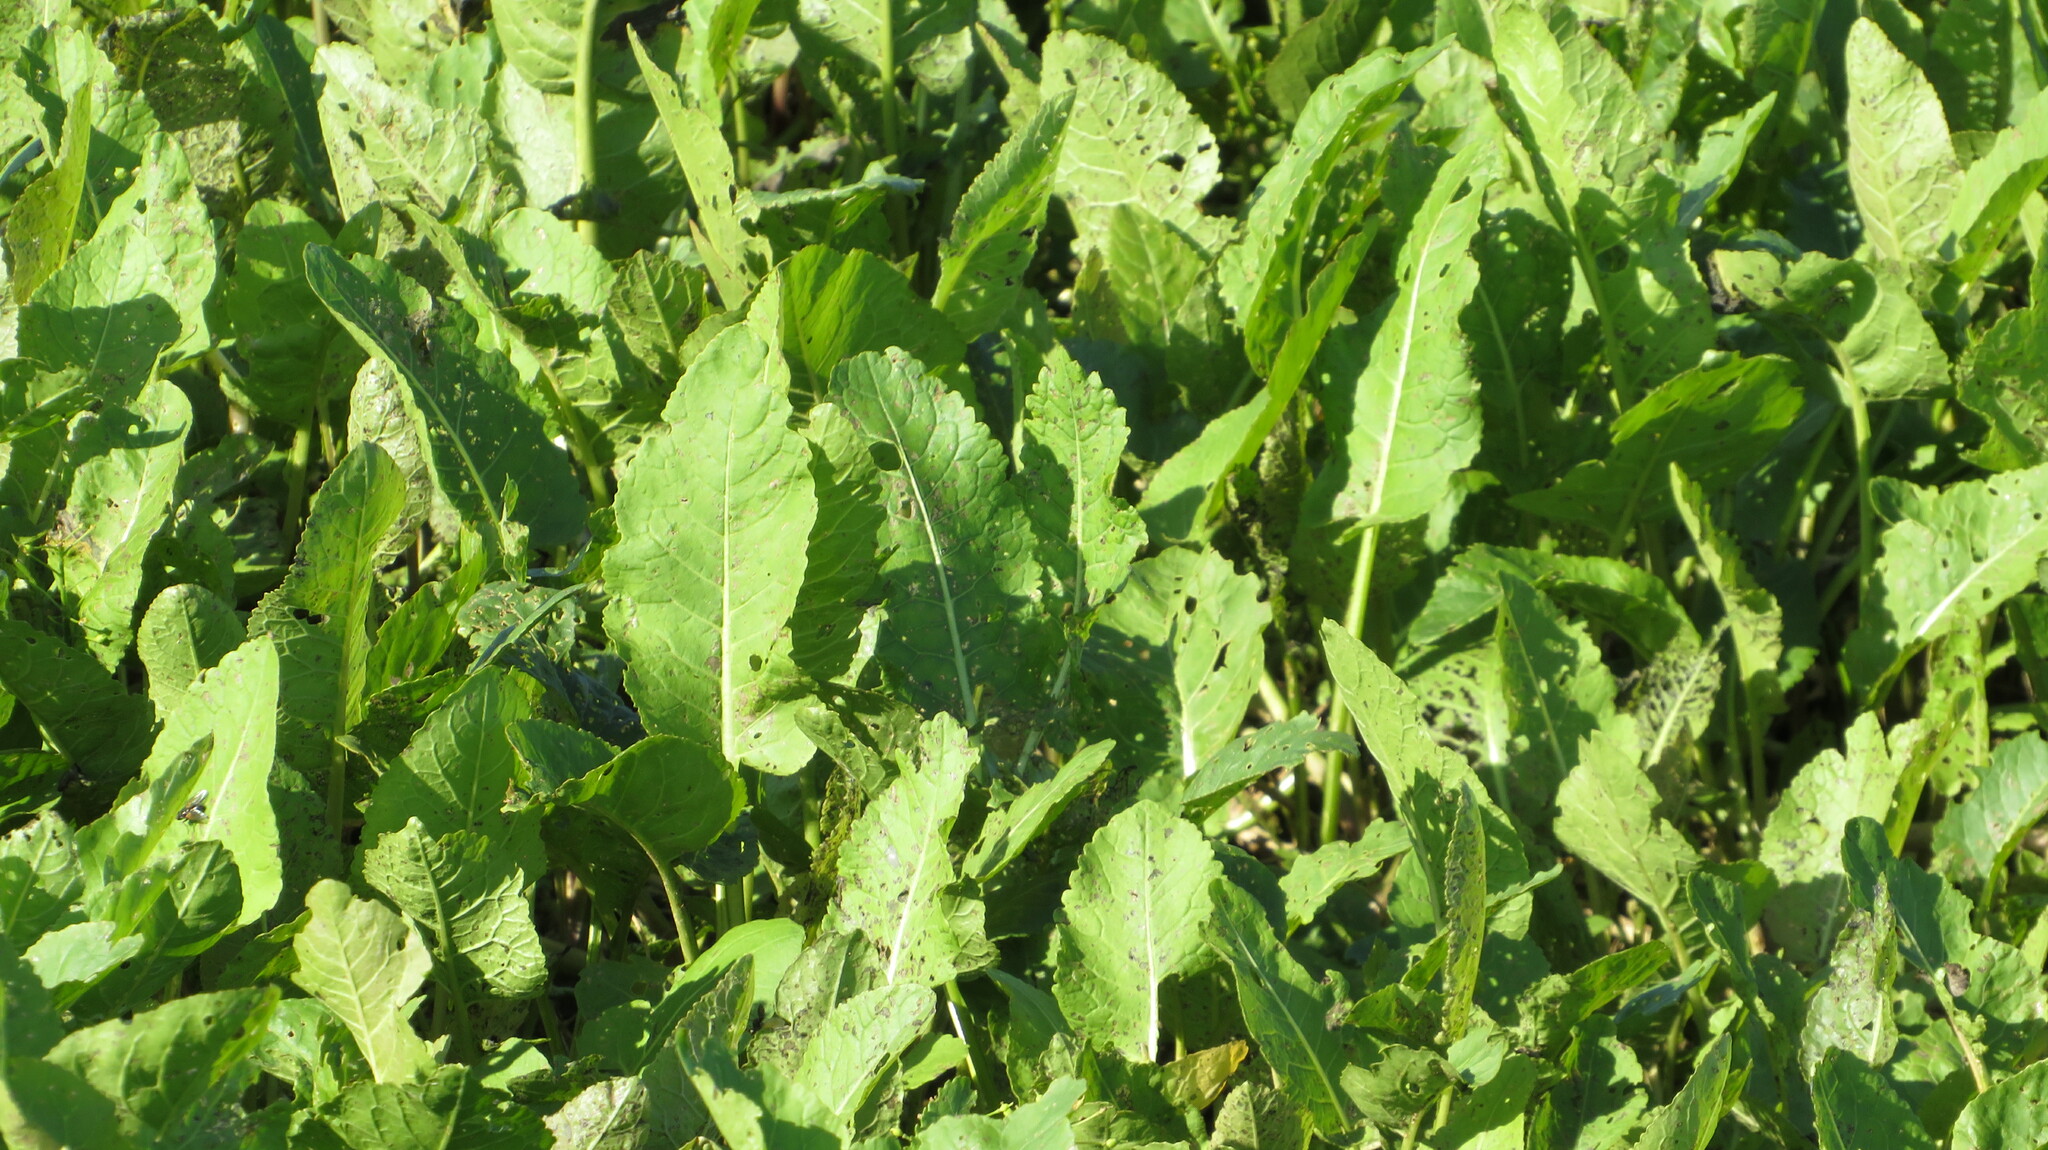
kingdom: Plantae
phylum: Tracheophyta
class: Magnoliopsida
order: Brassicales
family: Brassicaceae
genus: Rorippa
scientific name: Rorippa amphibia
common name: Great yellow-cress
